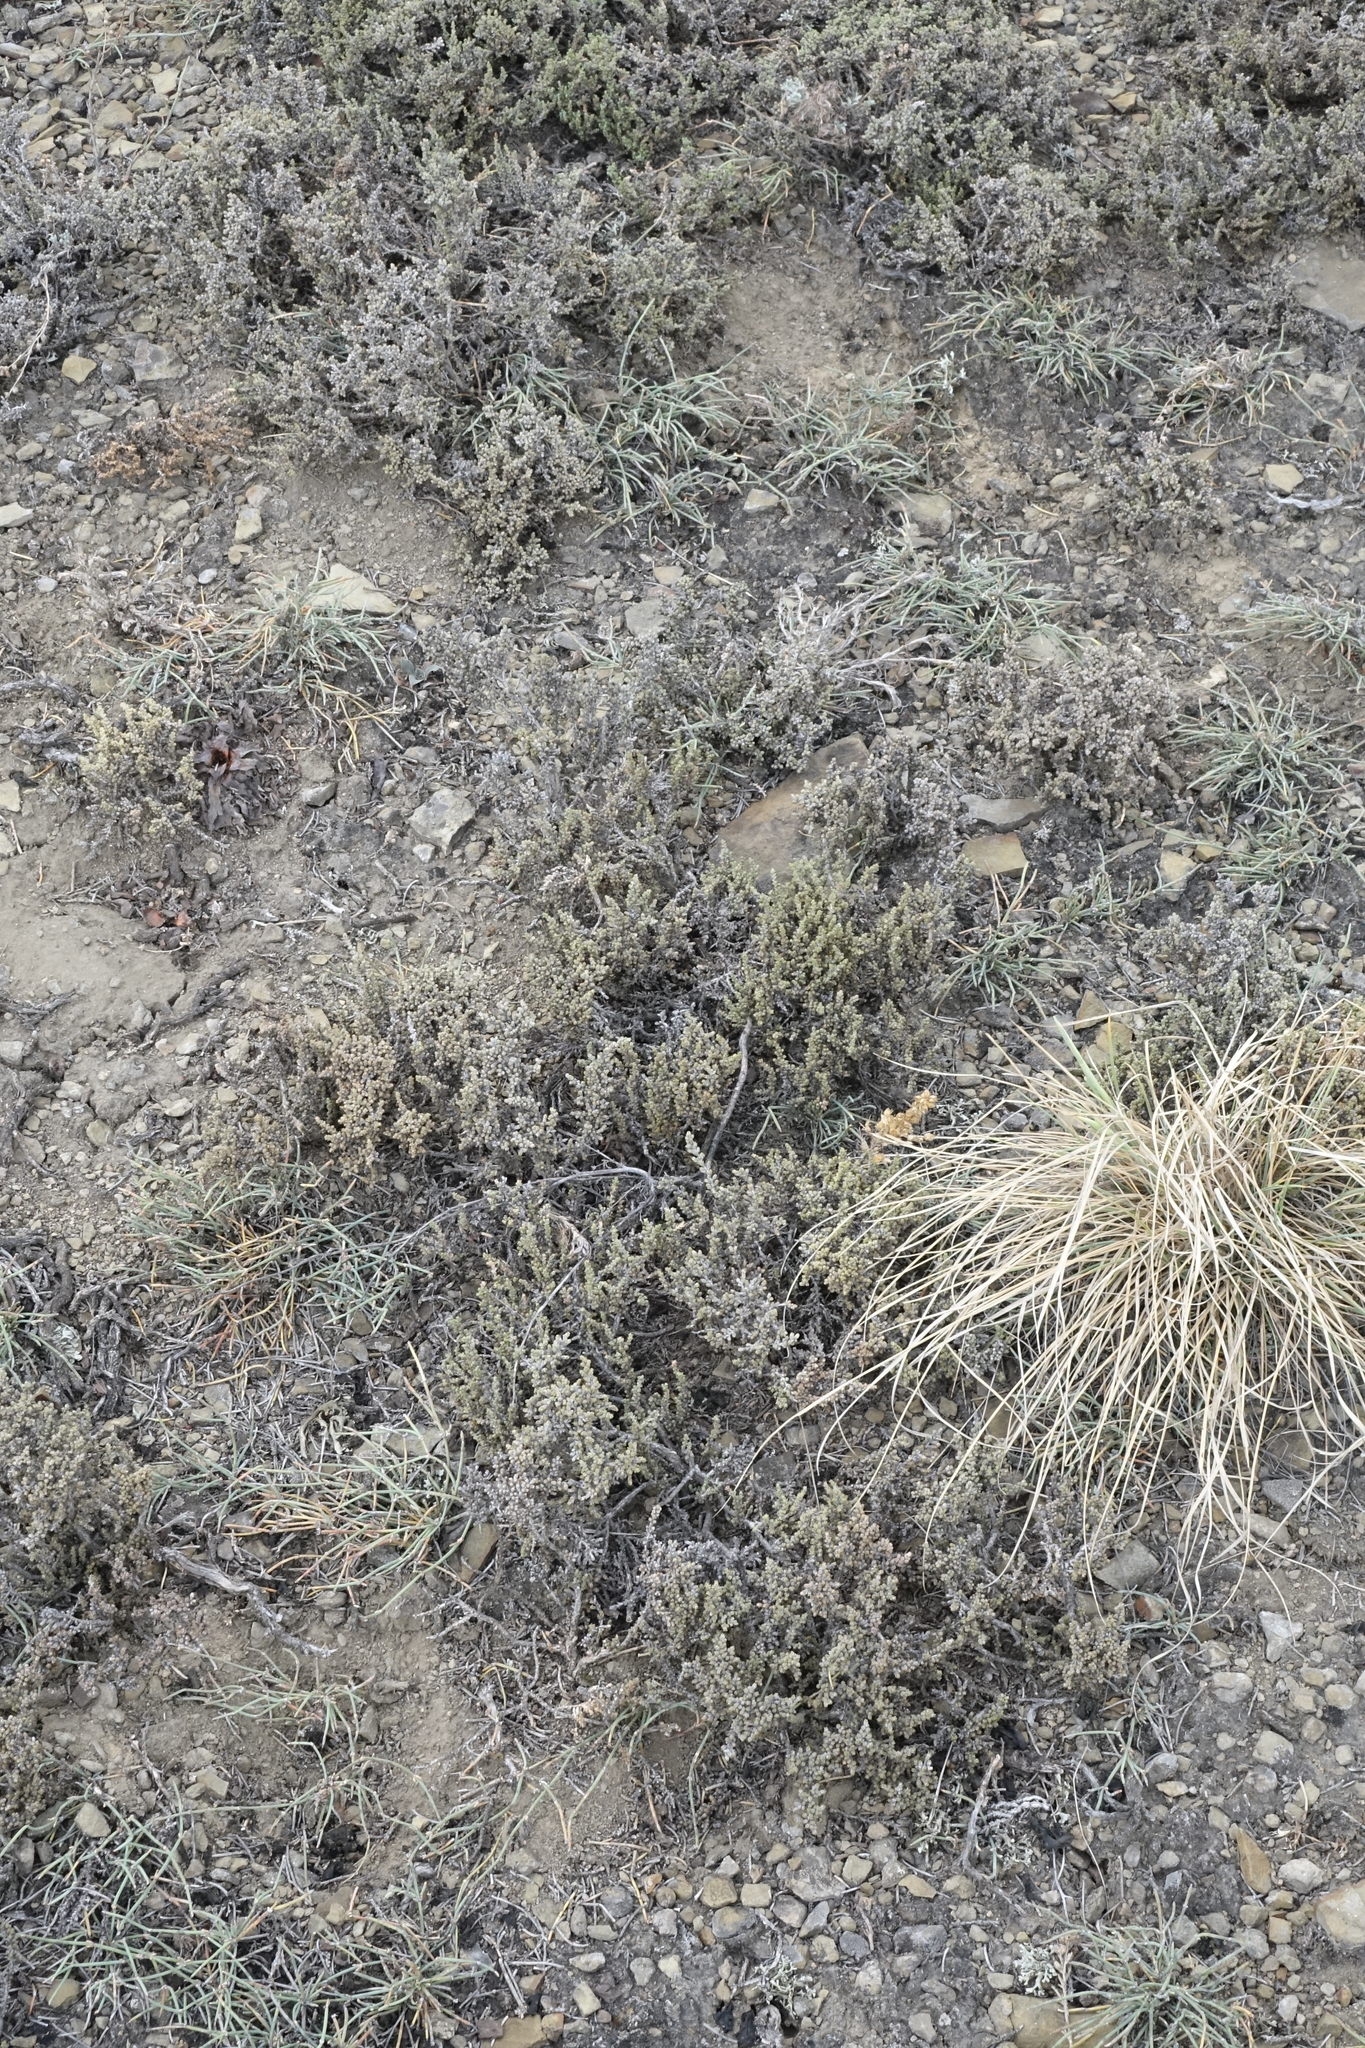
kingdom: Plantae
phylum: Tracheophyta
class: Magnoliopsida
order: Caryophyllales
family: Amaranthaceae
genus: Nanophyton
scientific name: Nanophyton grubovii
